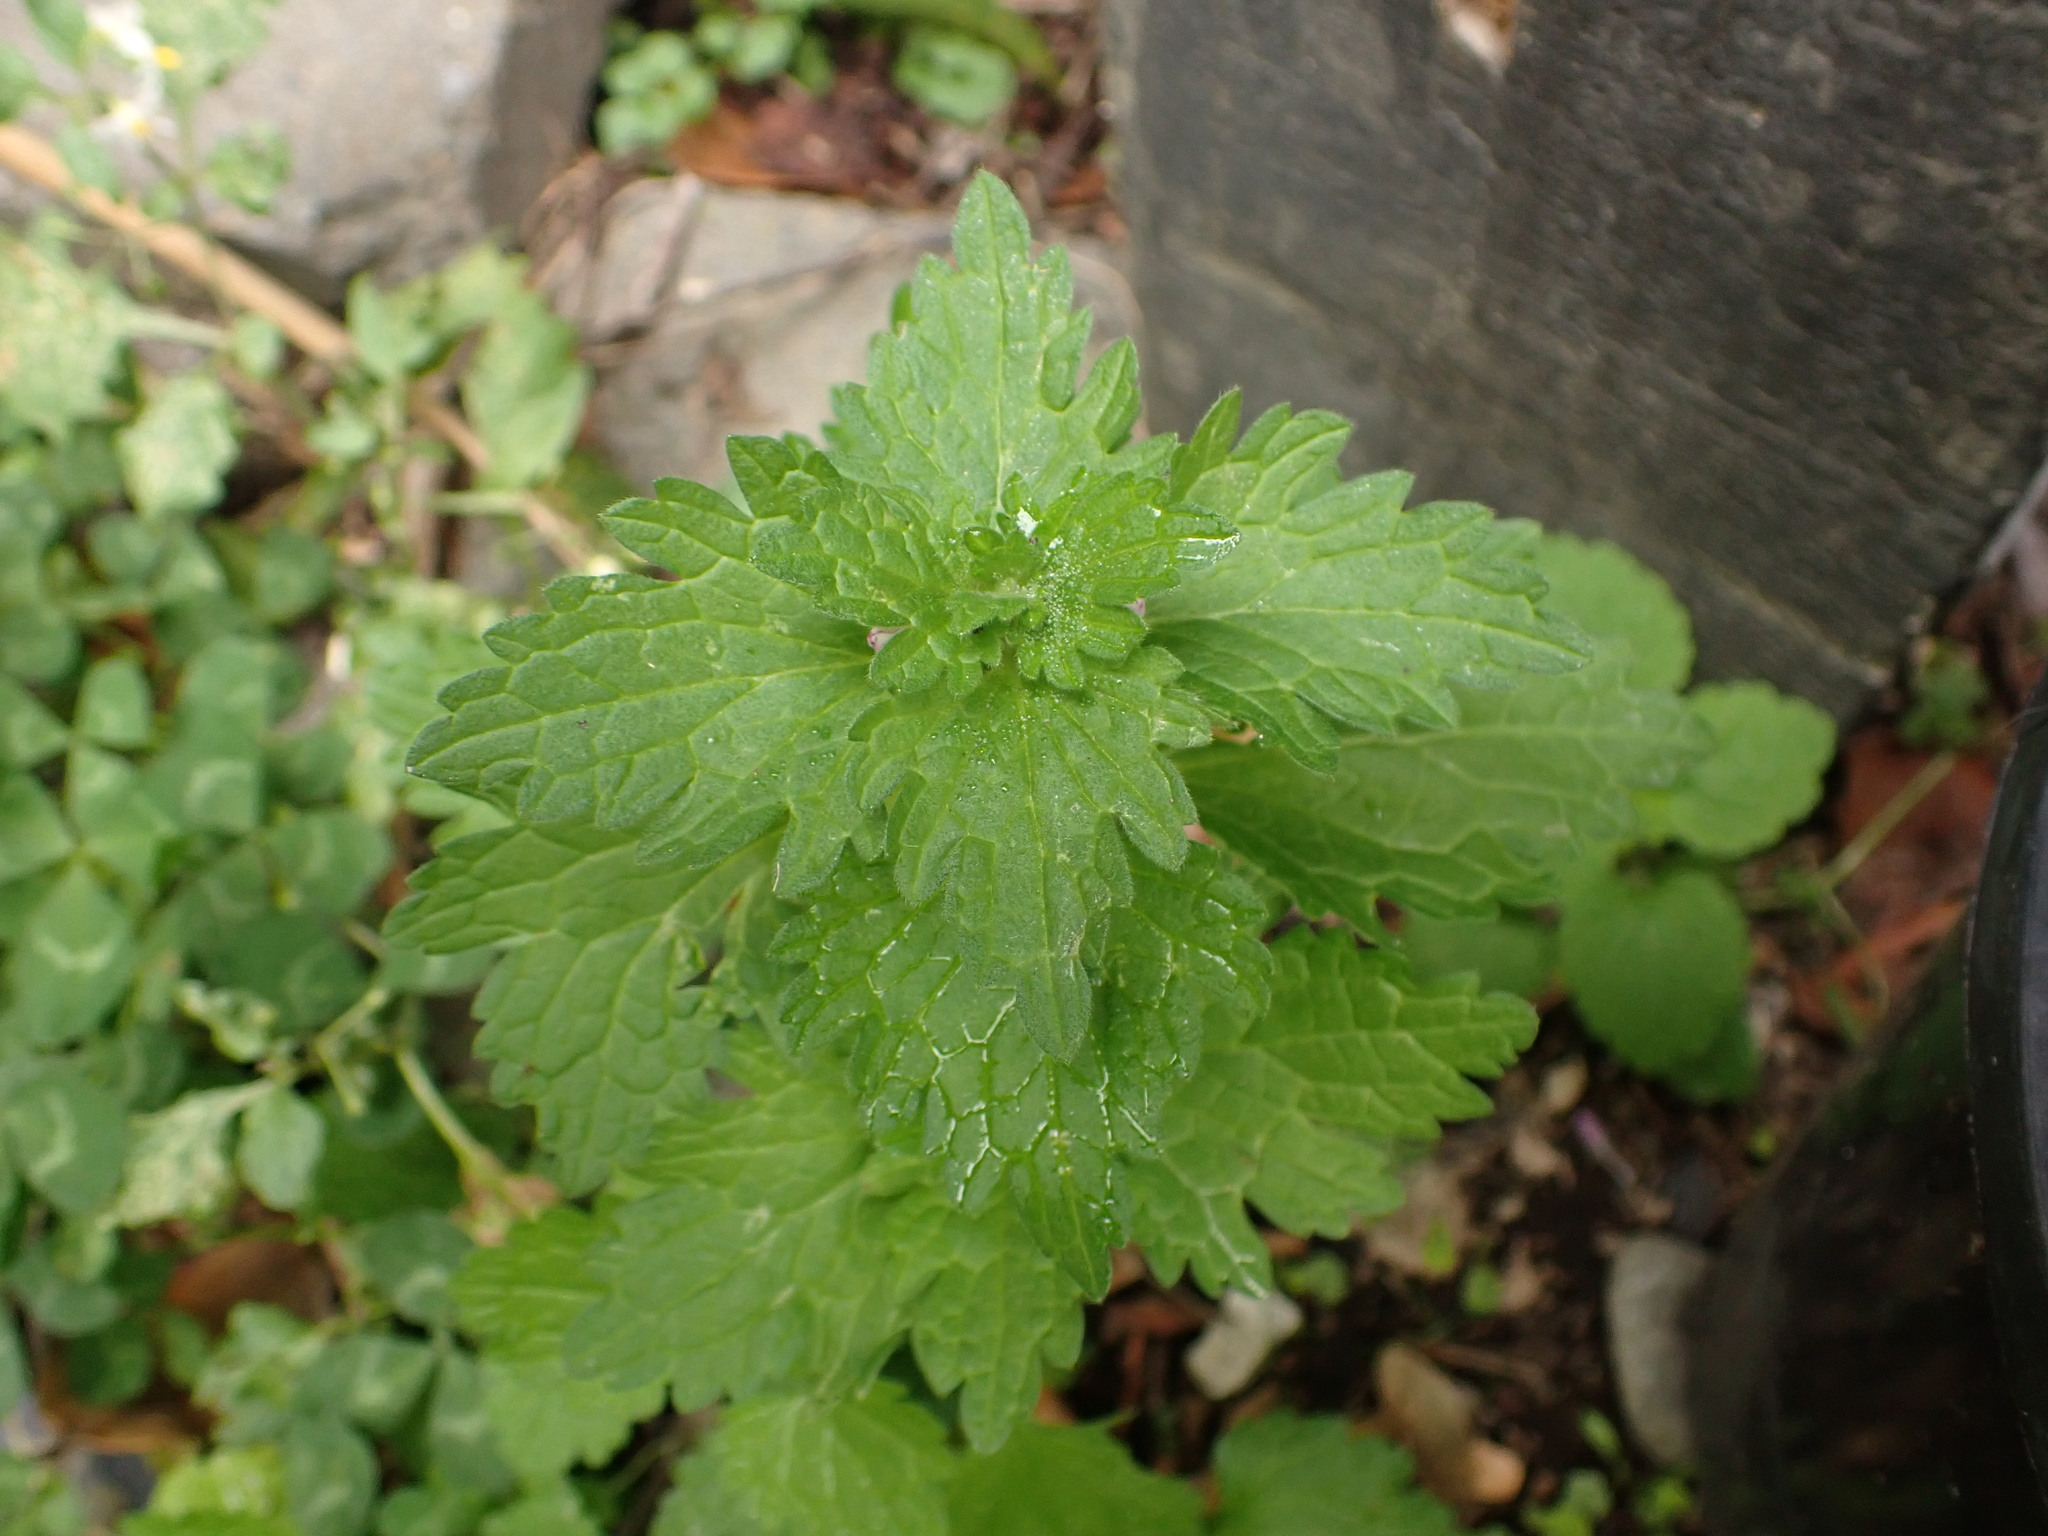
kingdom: Plantae
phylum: Tracheophyta
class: Magnoliopsida
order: Lamiales
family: Lamiaceae
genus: Lamium
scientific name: Lamium hybridum
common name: Cut-leaved dead-nettle
